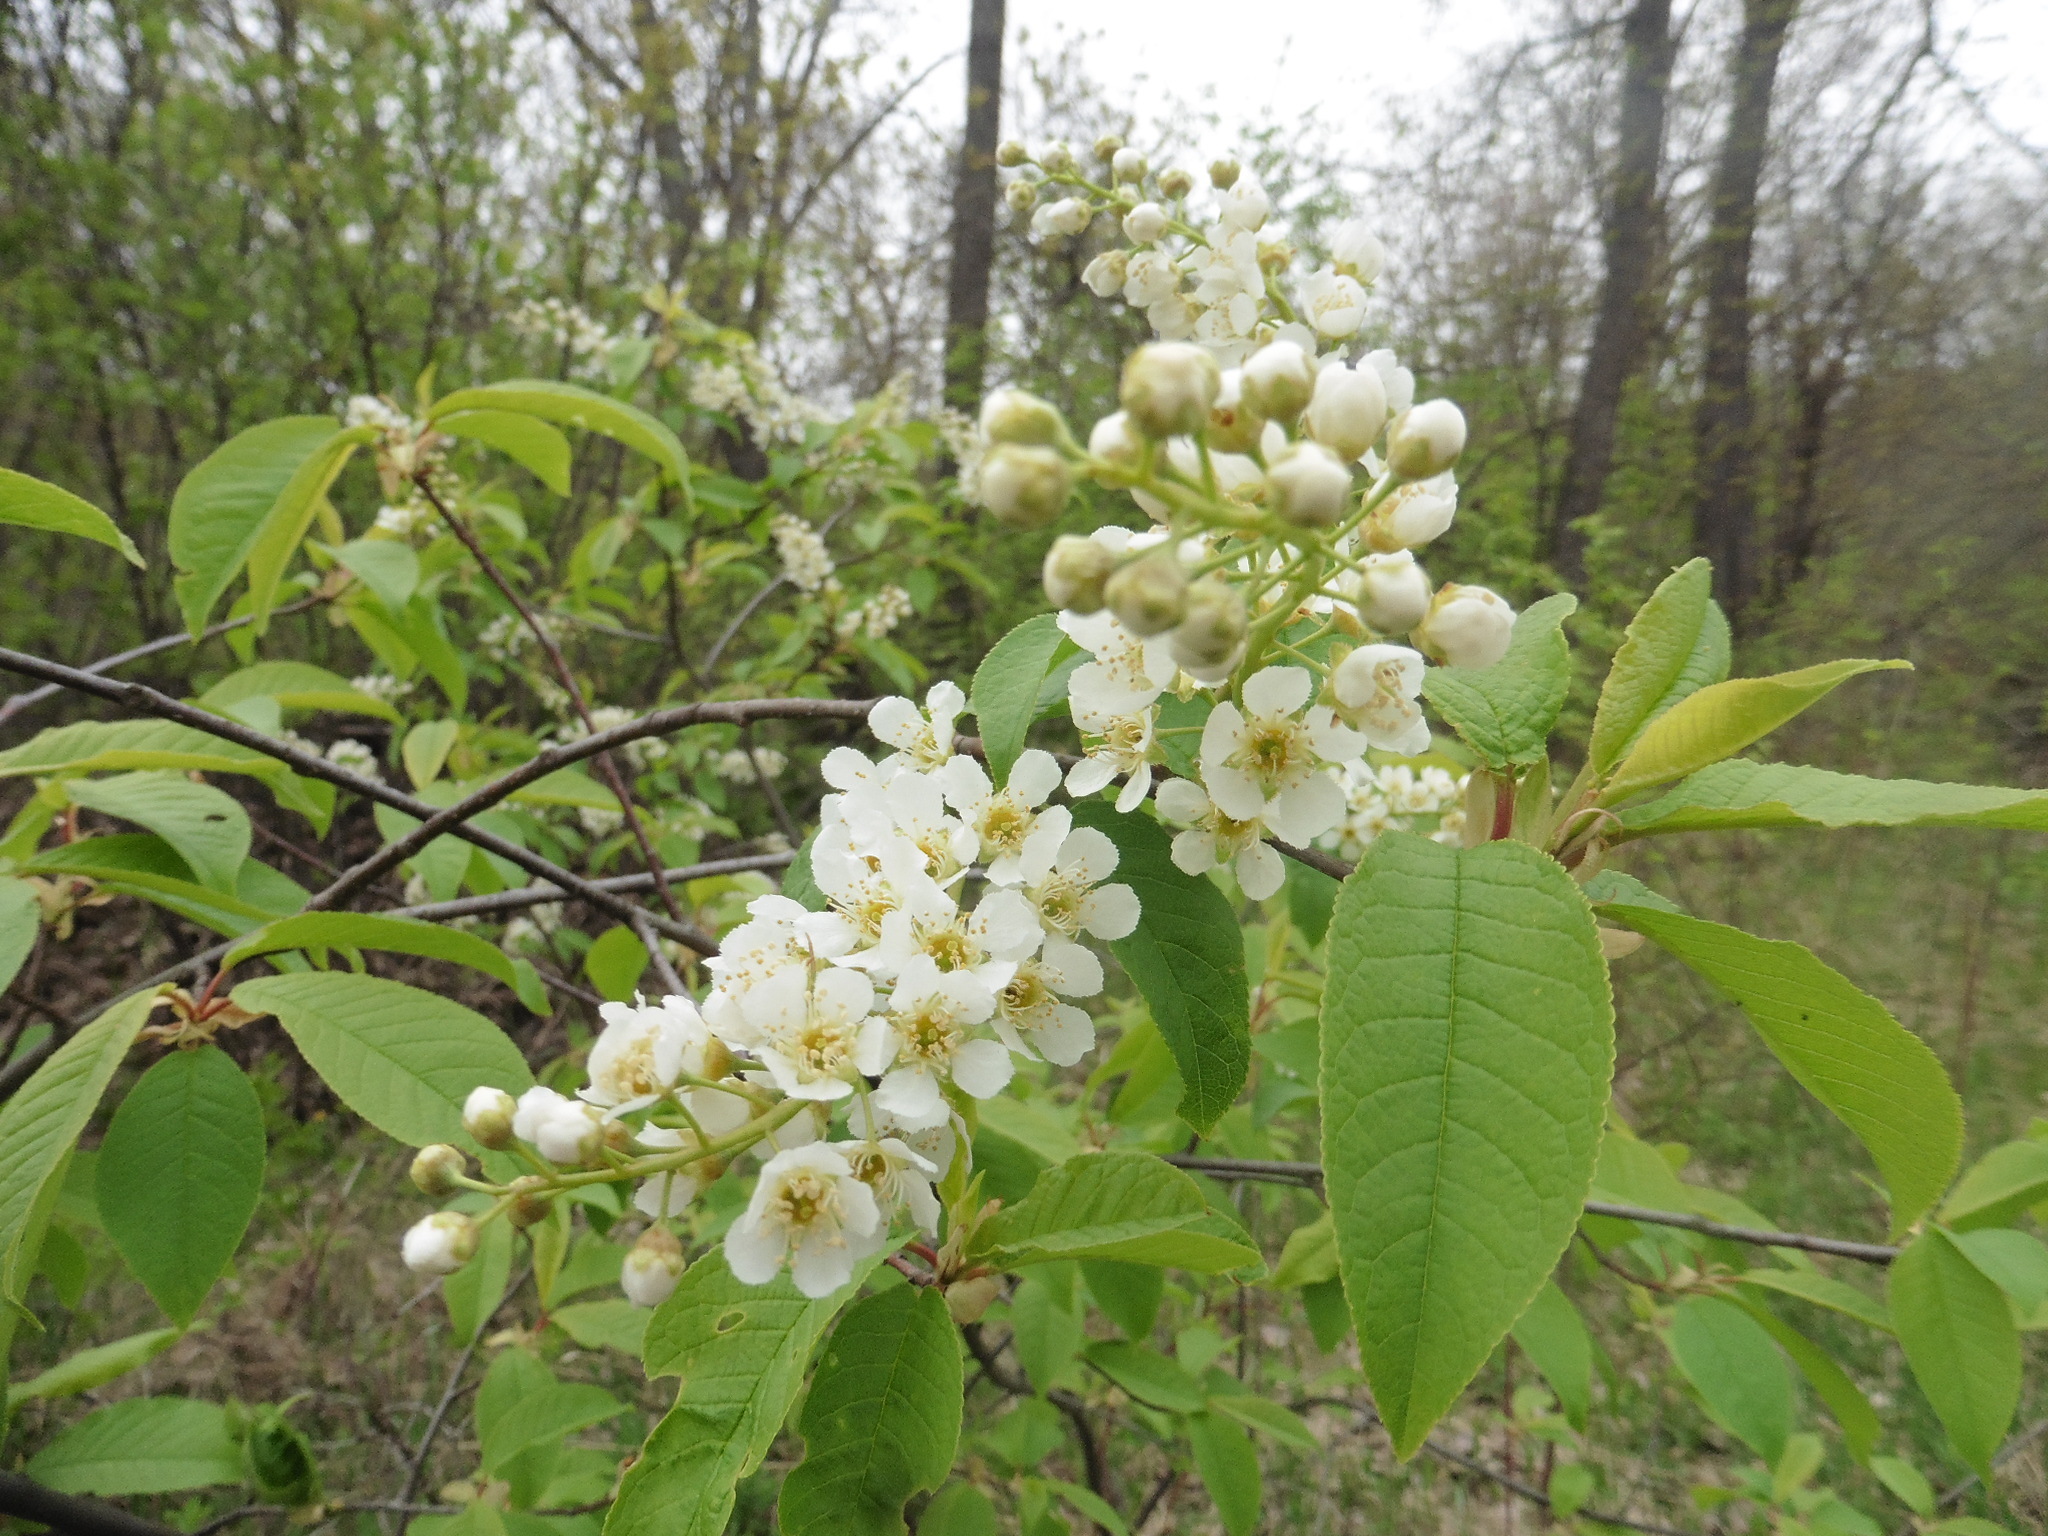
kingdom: Plantae
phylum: Tracheophyta
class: Magnoliopsida
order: Rosales
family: Rosaceae
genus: Prunus
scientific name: Prunus padus
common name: Bird cherry
